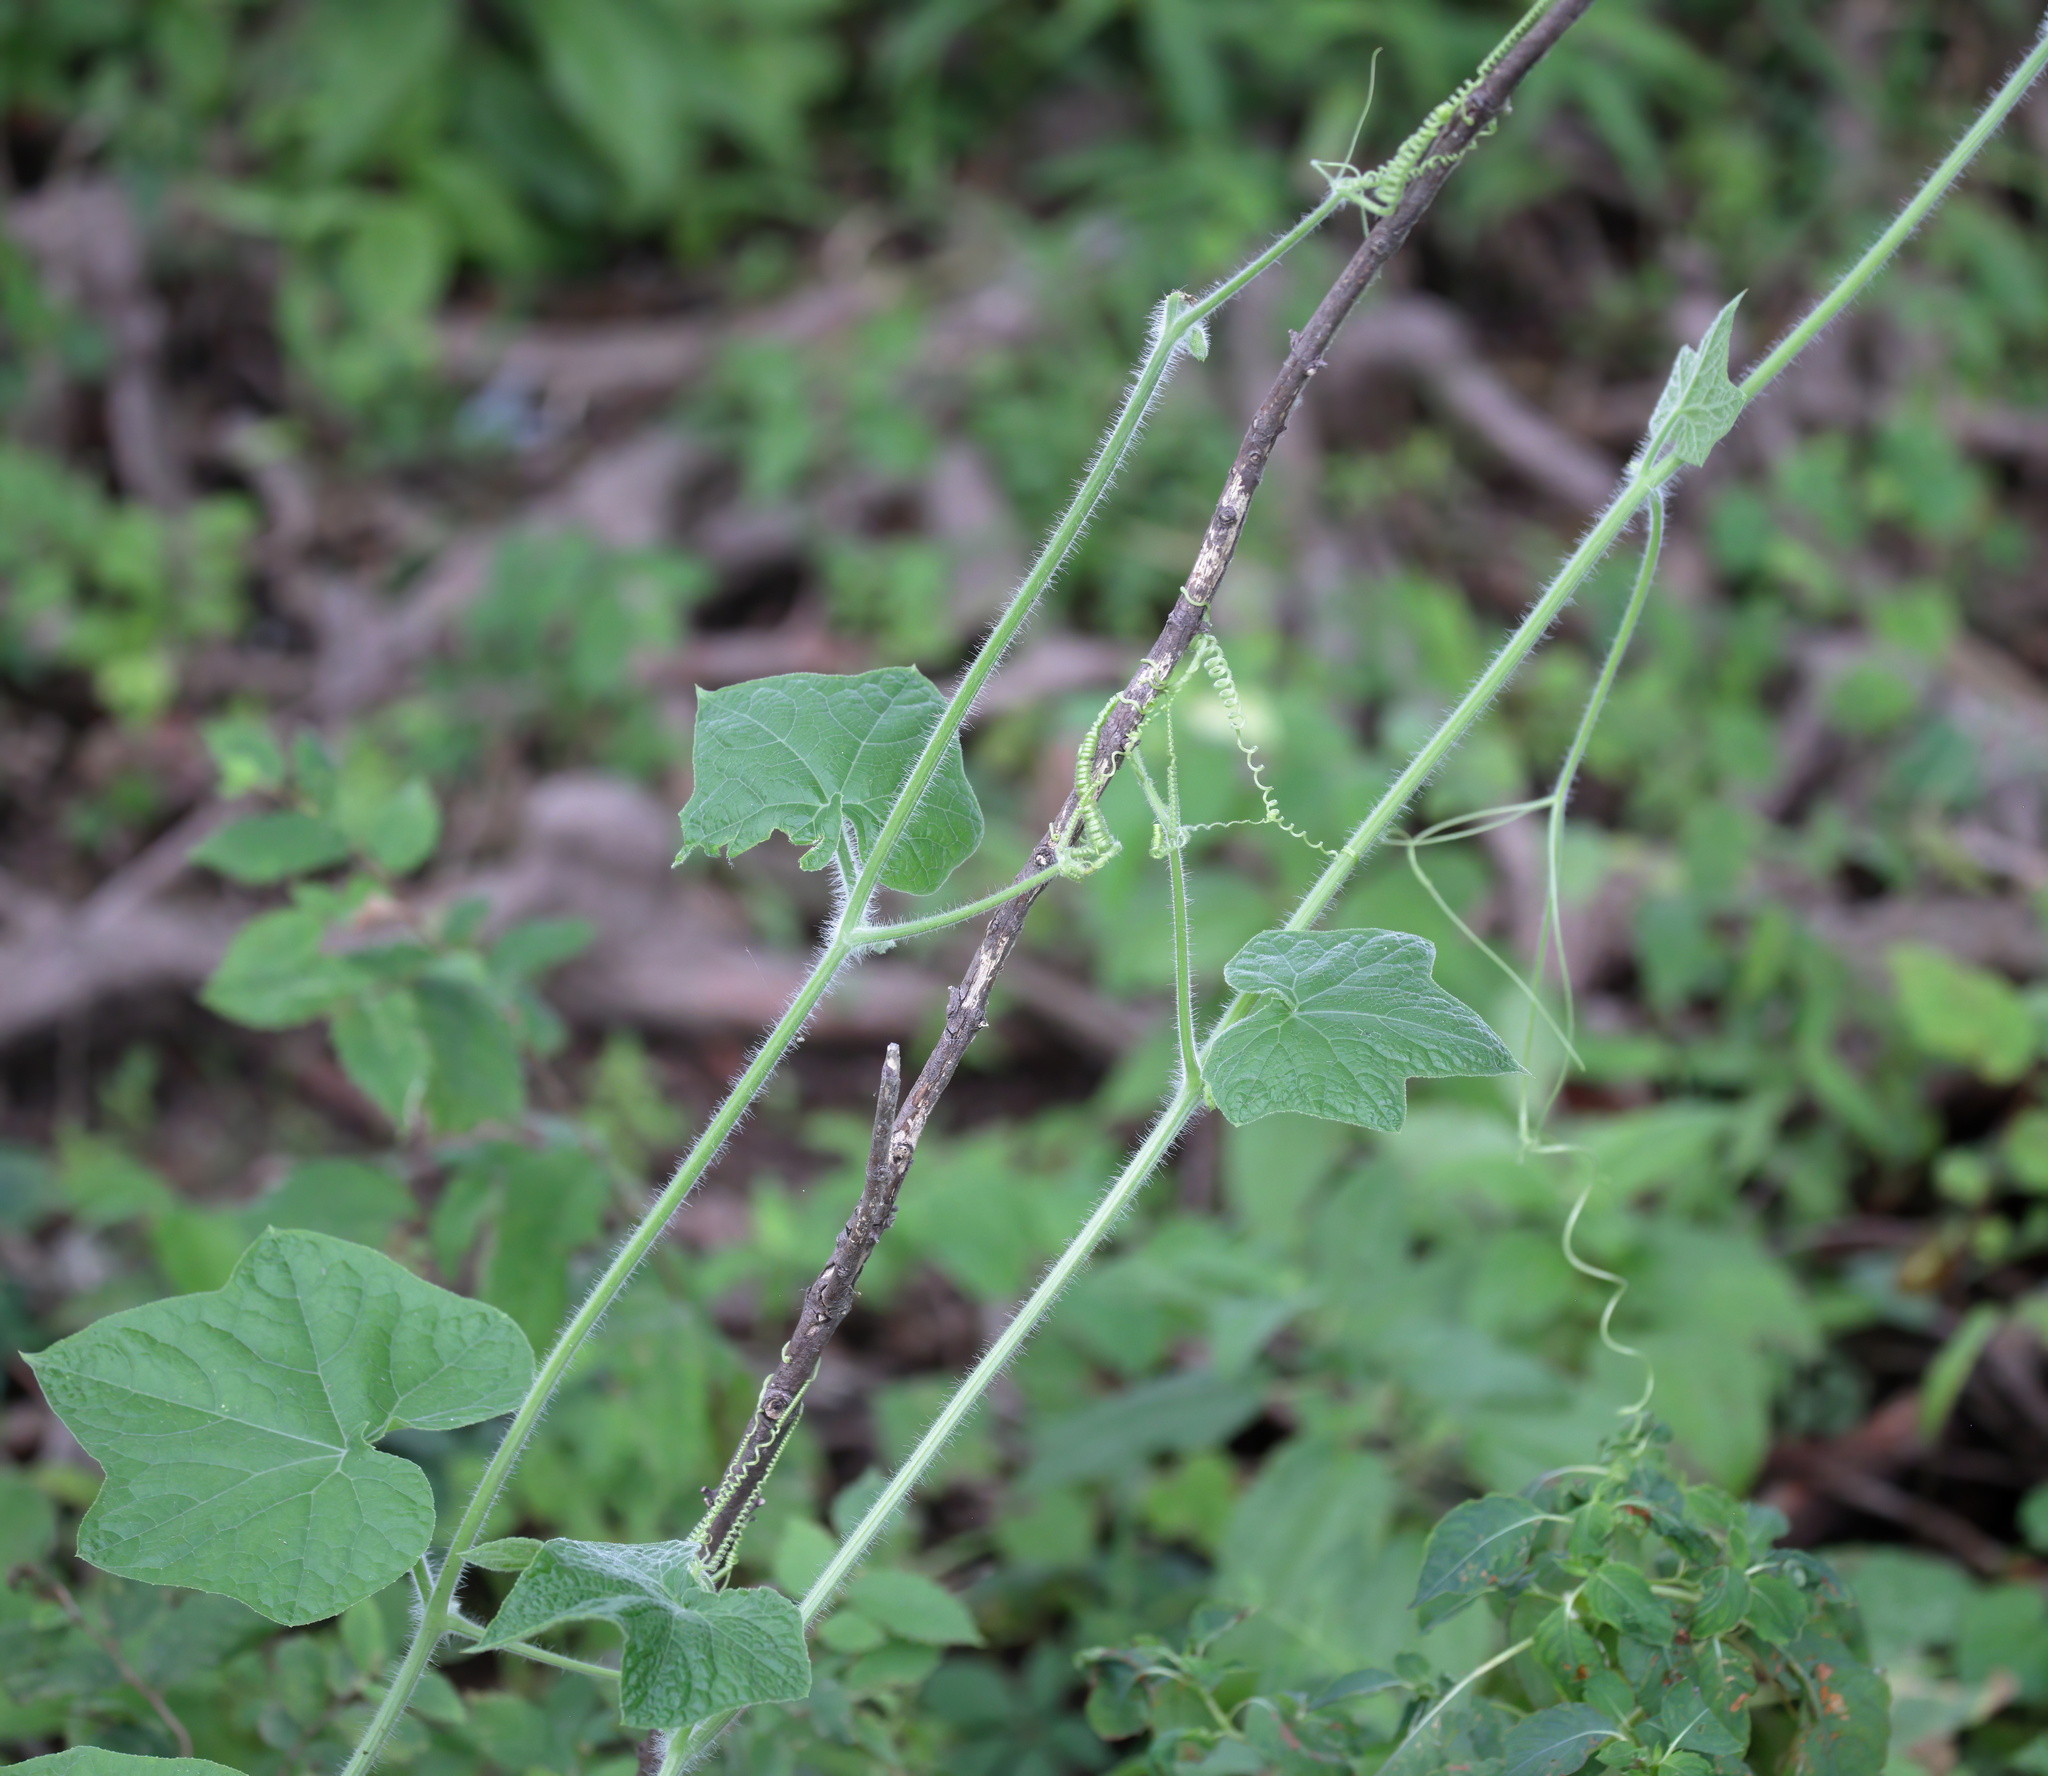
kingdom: Plantae
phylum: Tracheophyta
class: Magnoliopsida
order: Cucurbitales
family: Cucurbitaceae
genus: Sicyos
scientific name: Sicyos angulatus
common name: Angled burr cucumber
